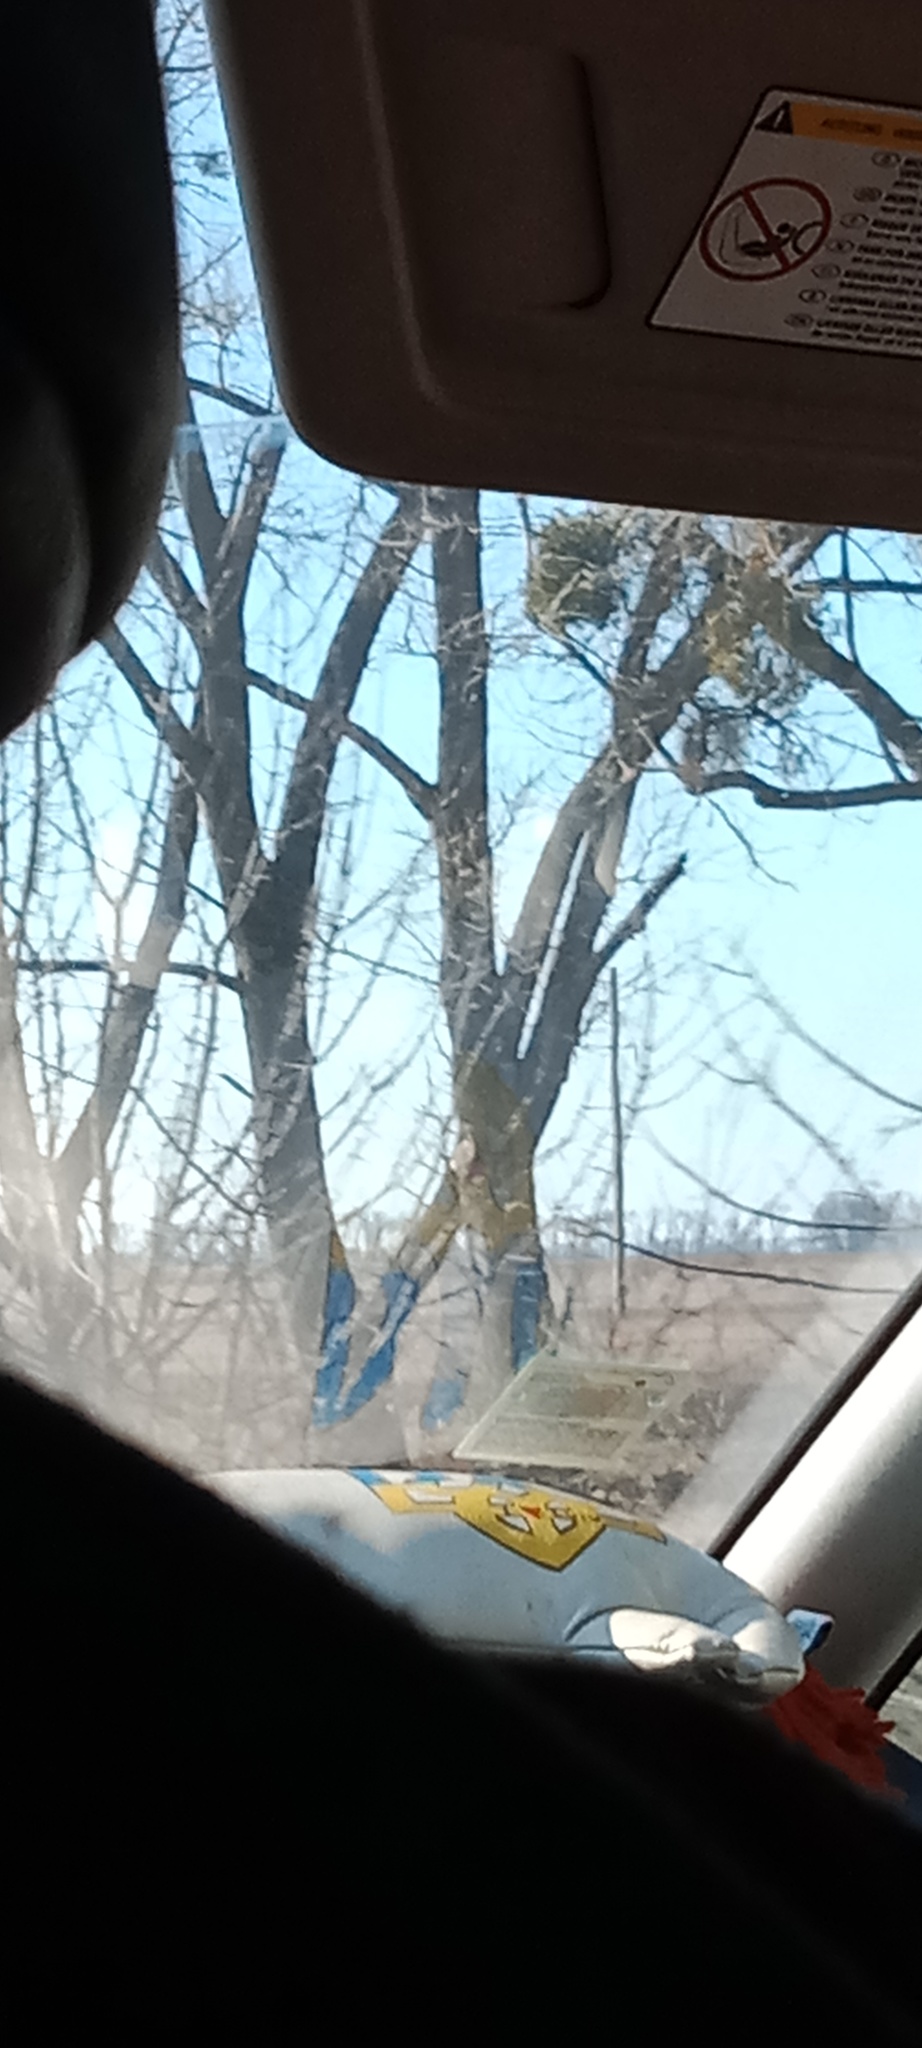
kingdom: Plantae
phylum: Tracheophyta
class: Magnoliopsida
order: Santalales
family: Viscaceae
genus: Viscum
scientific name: Viscum album
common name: Mistletoe
